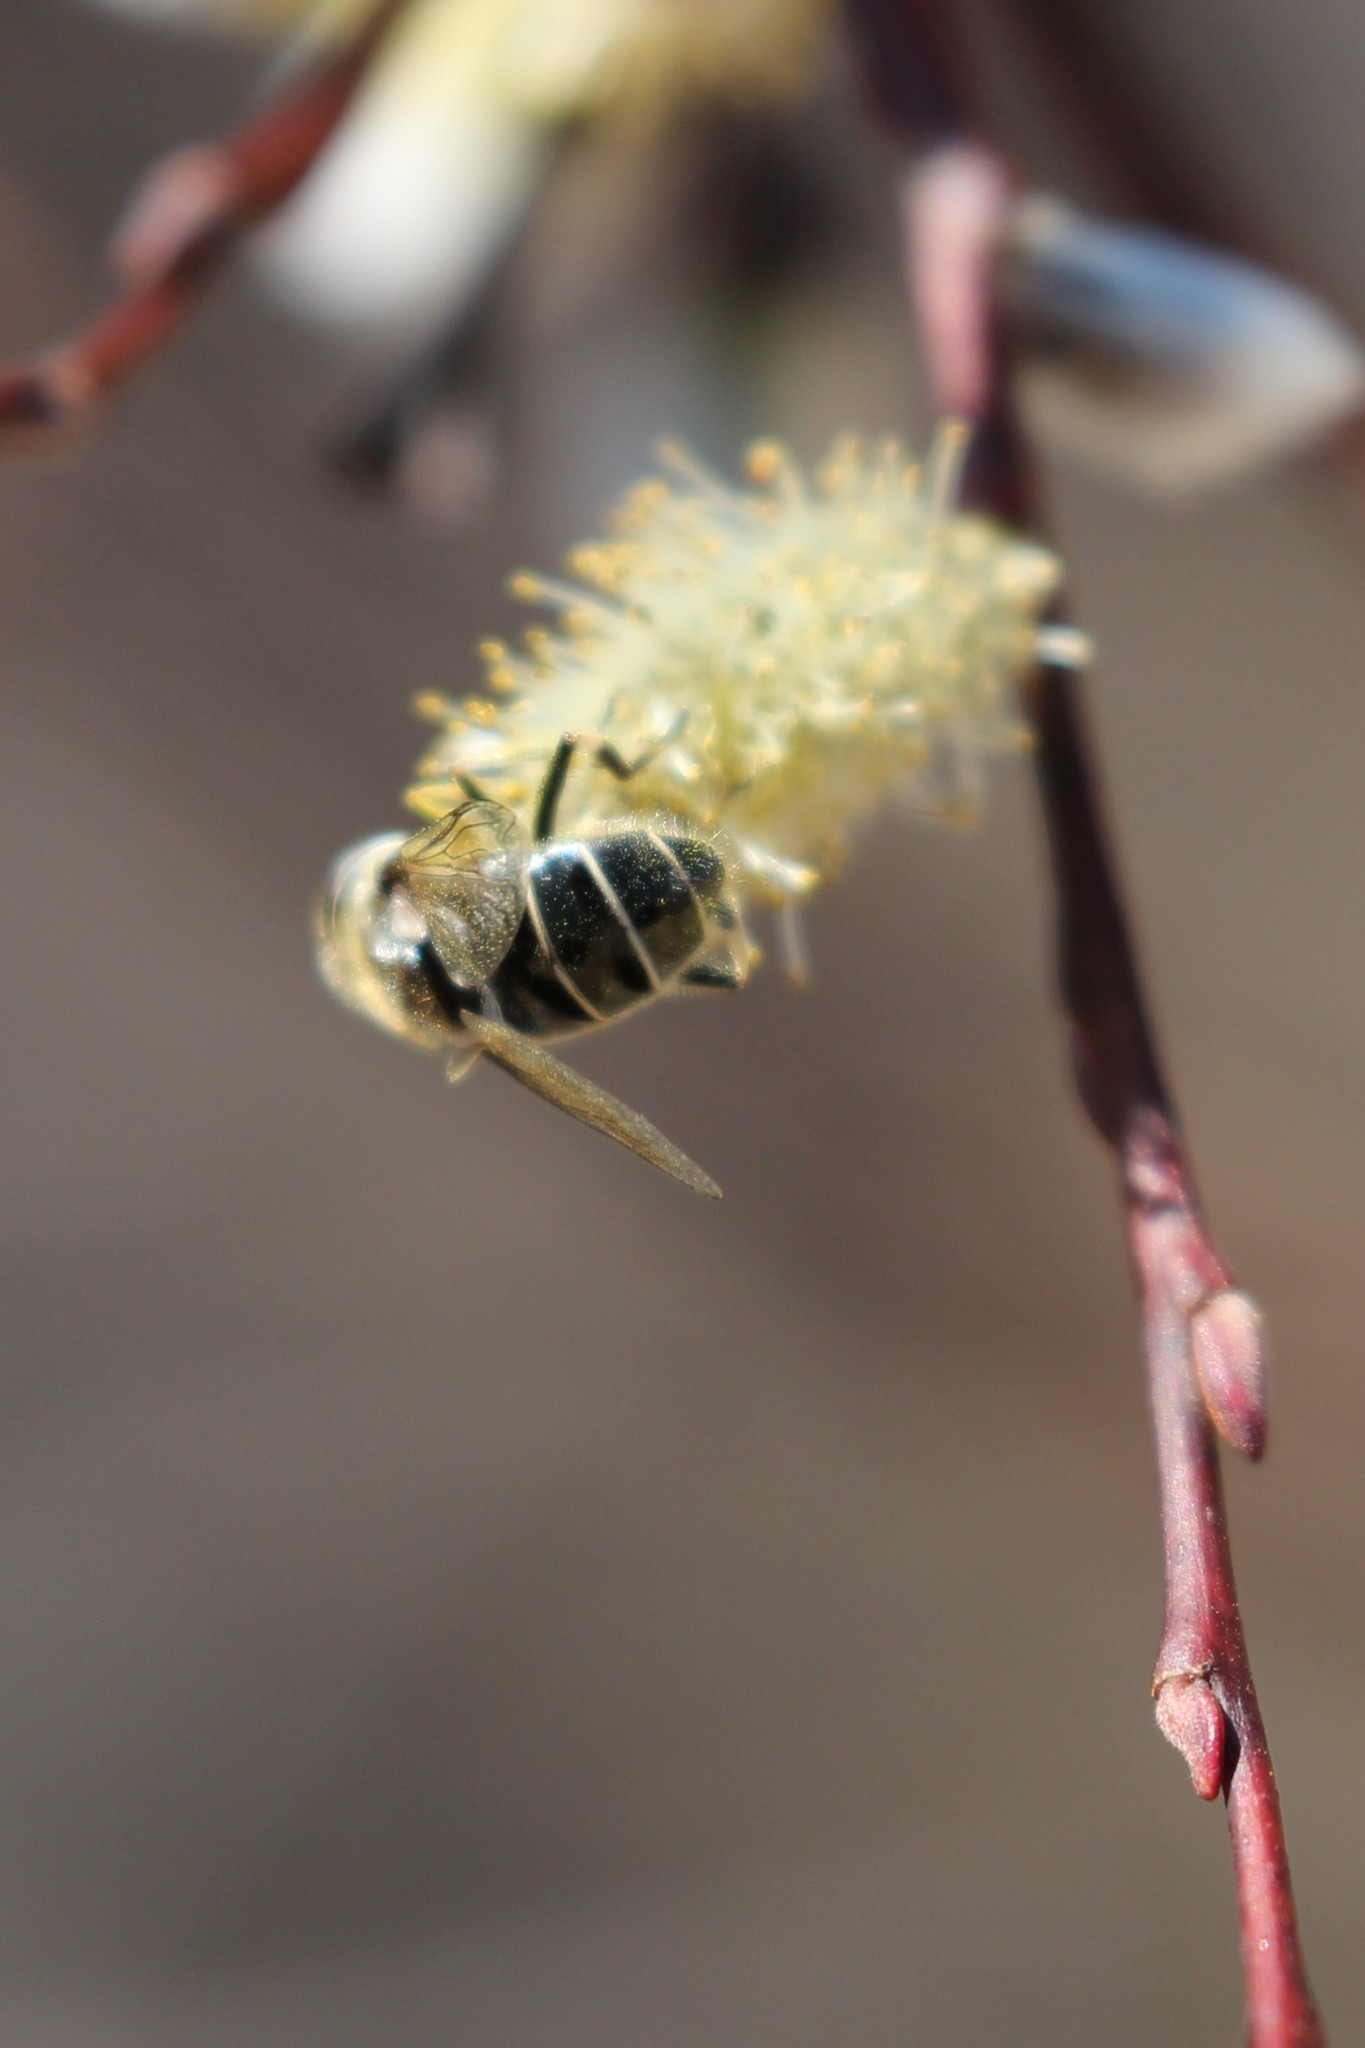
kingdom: Animalia
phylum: Arthropoda
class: Insecta
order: Diptera
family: Syrphidae
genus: Eristalis
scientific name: Eristalis dimidiata
